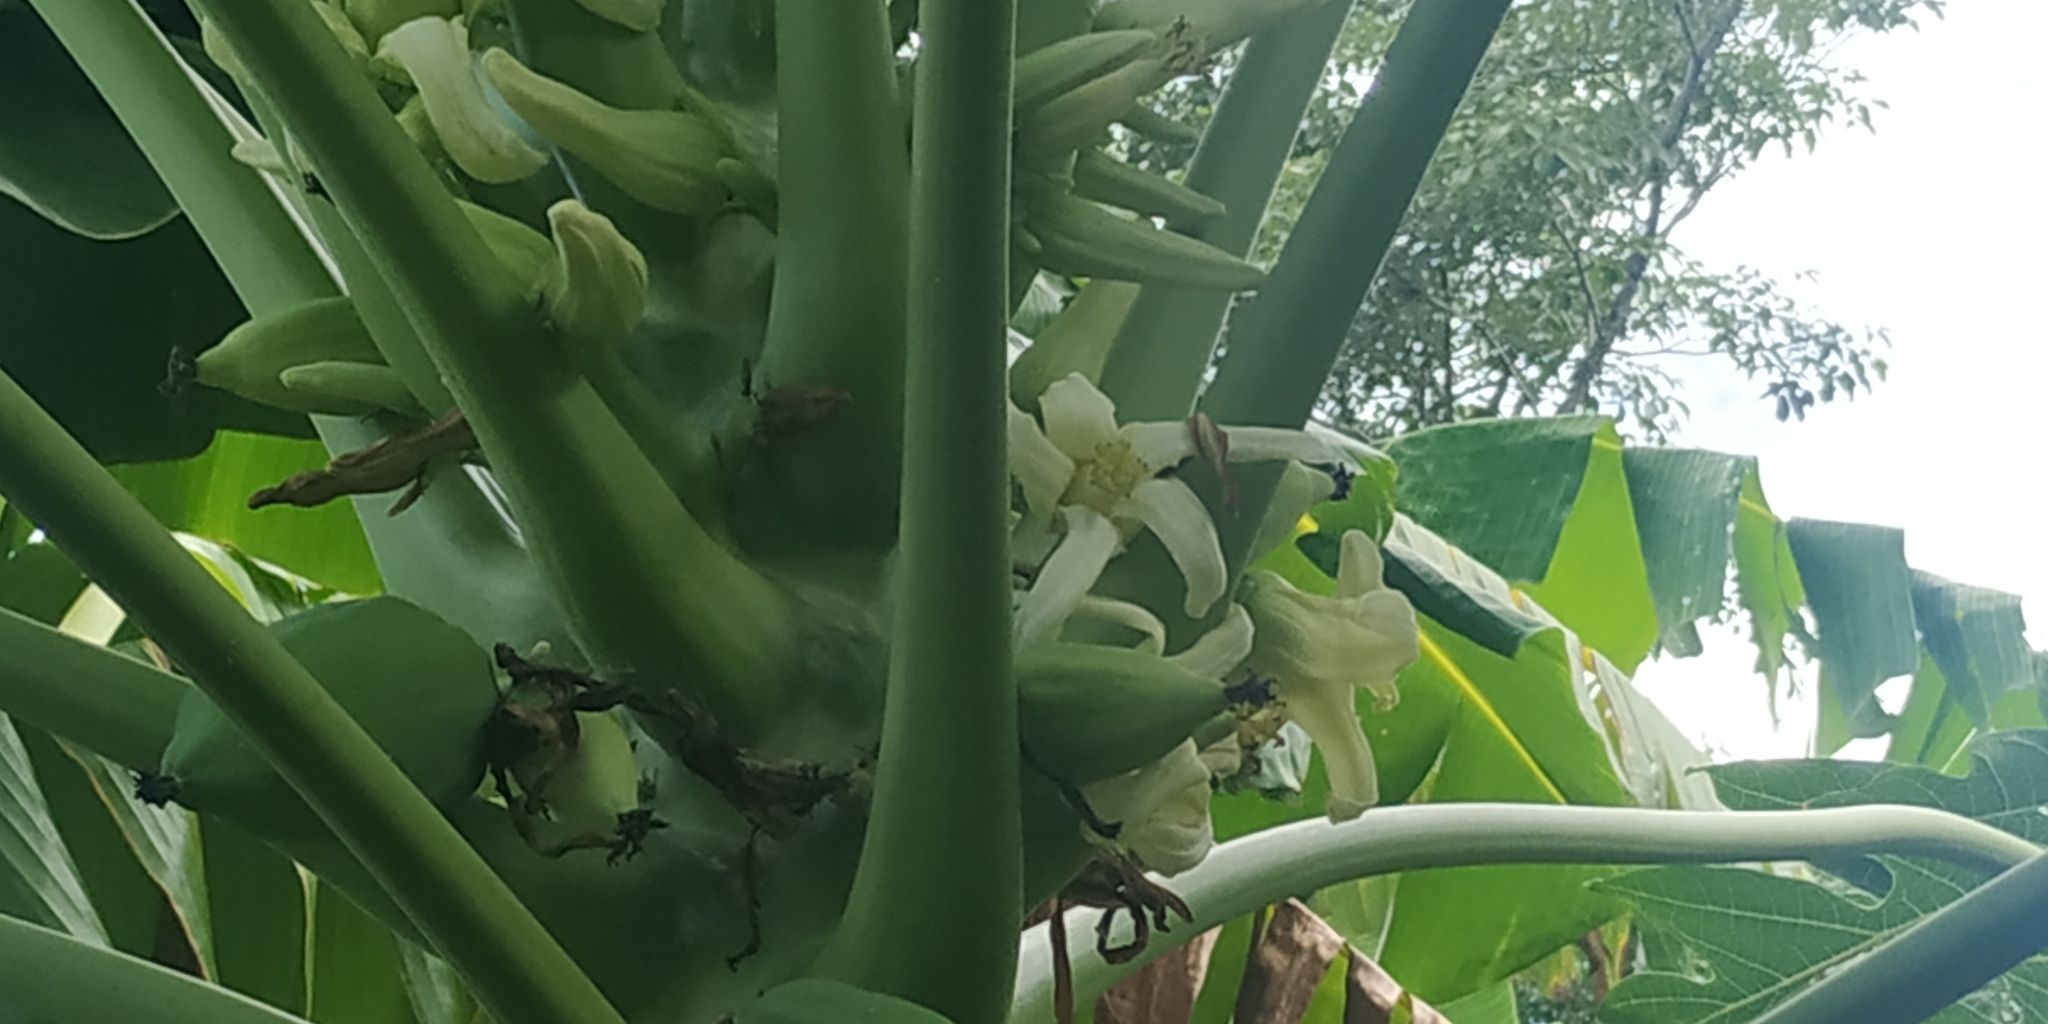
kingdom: Plantae
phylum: Tracheophyta
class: Magnoliopsida
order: Brassicales
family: Caricaceae
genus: Carica
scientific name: Carica papaya
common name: Papaya
